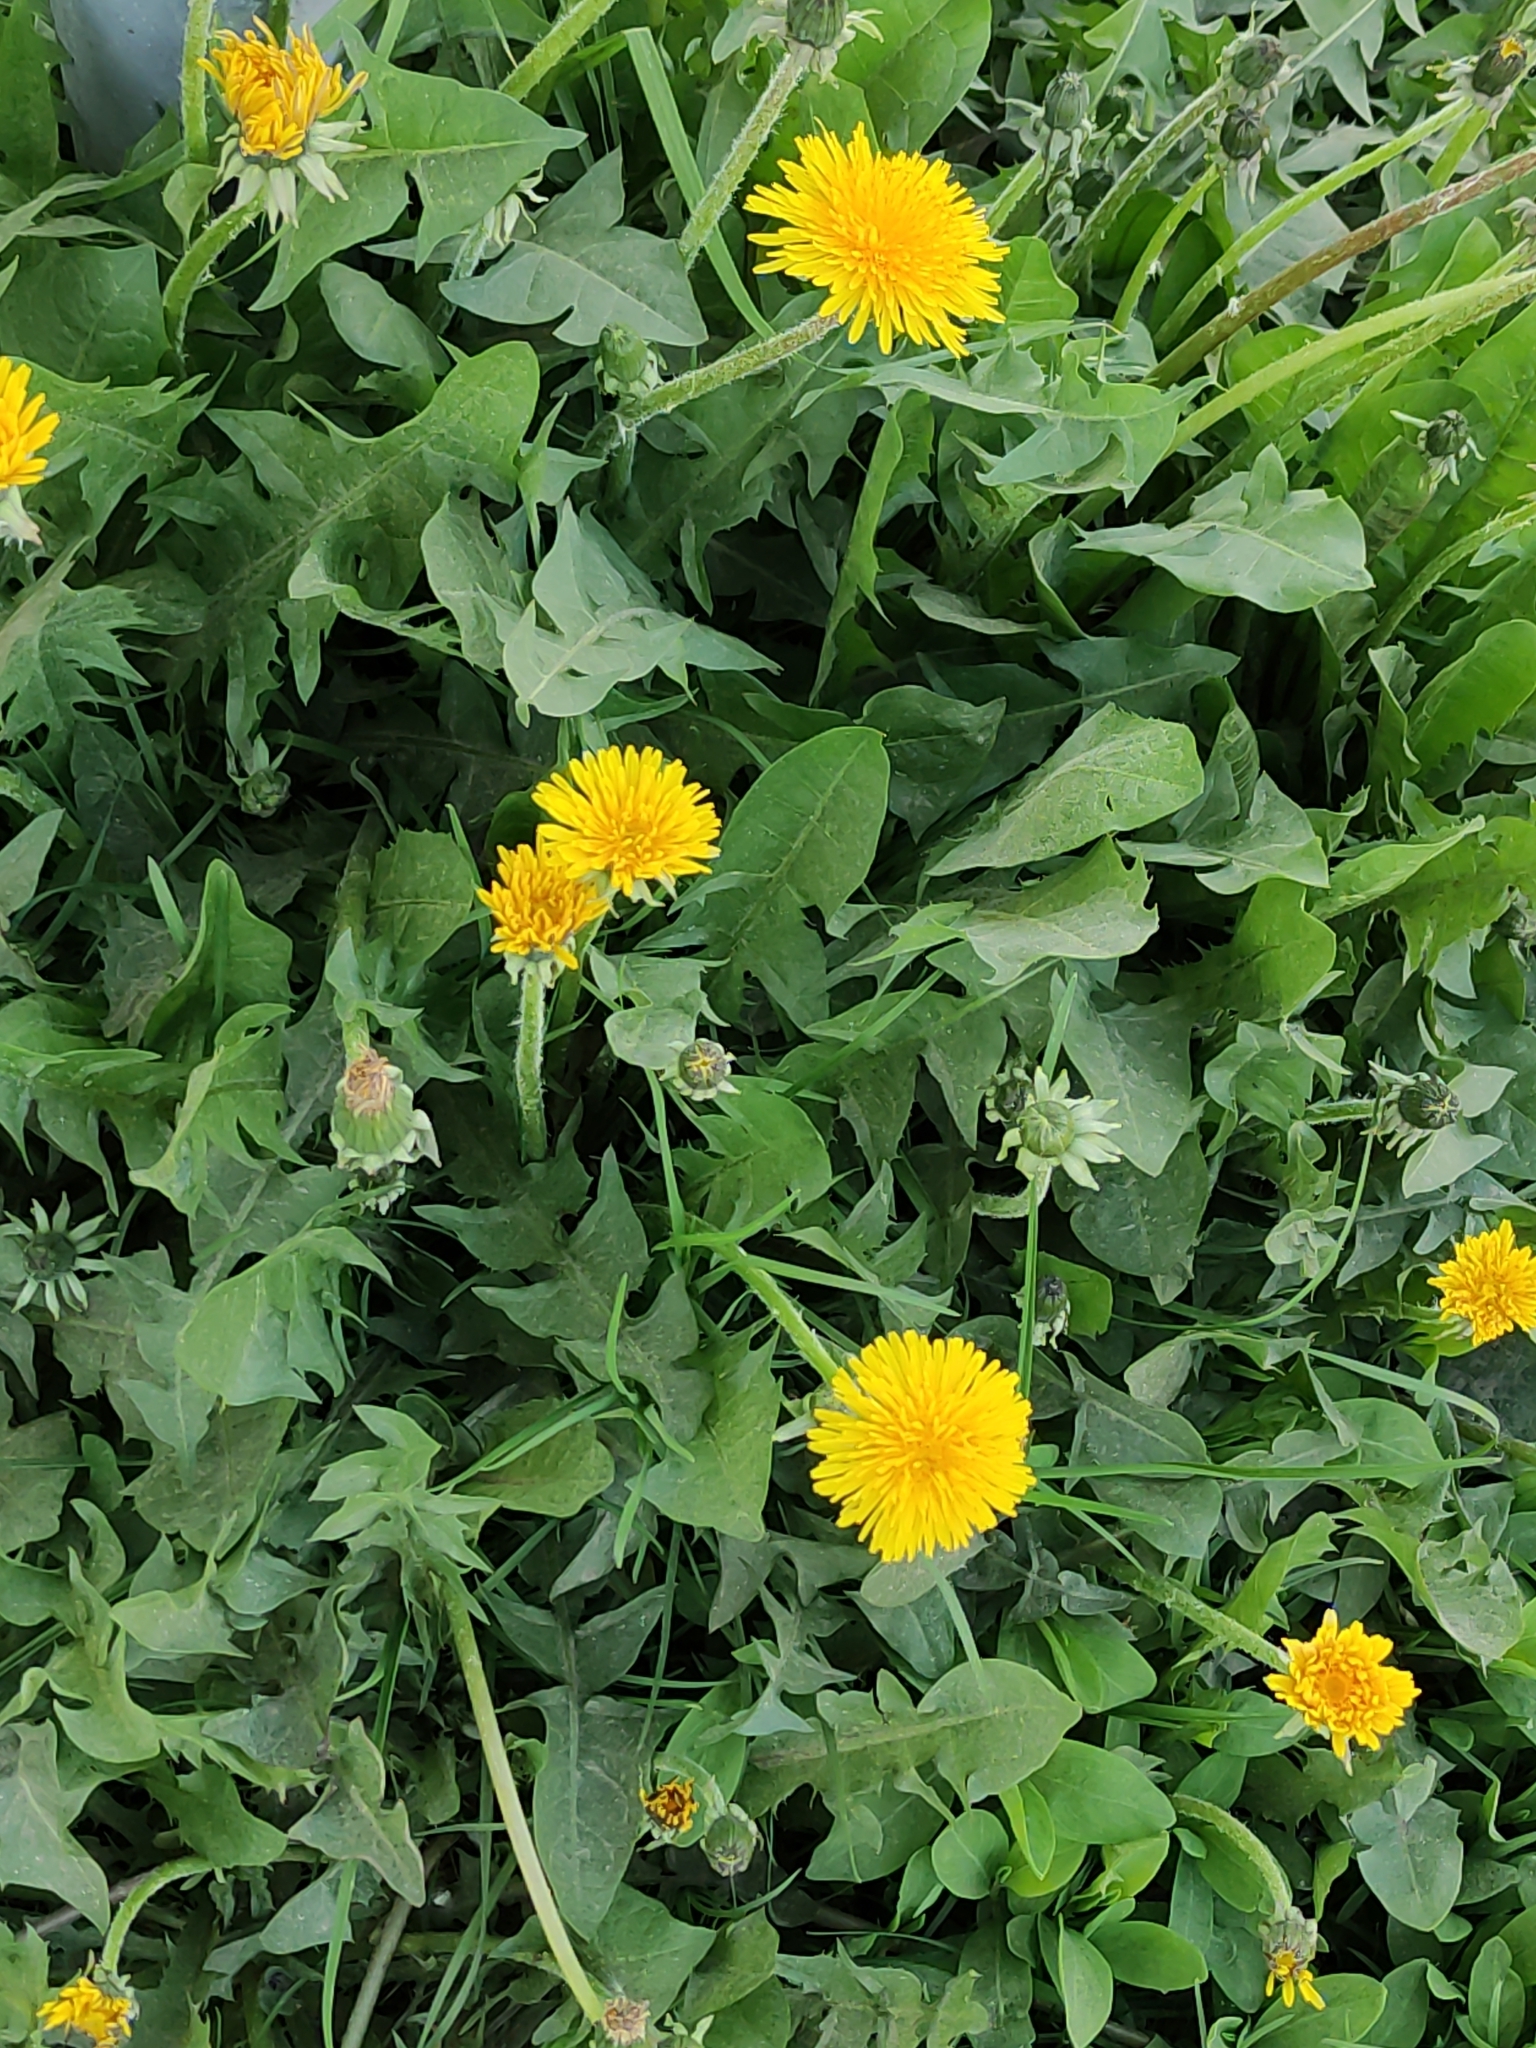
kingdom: Plantae
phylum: Tracheophyta
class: Magnoliopsida
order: Asterales
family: Asteraceae
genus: Taraxacum
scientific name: Taraxacum officinale
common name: Common dandelion
